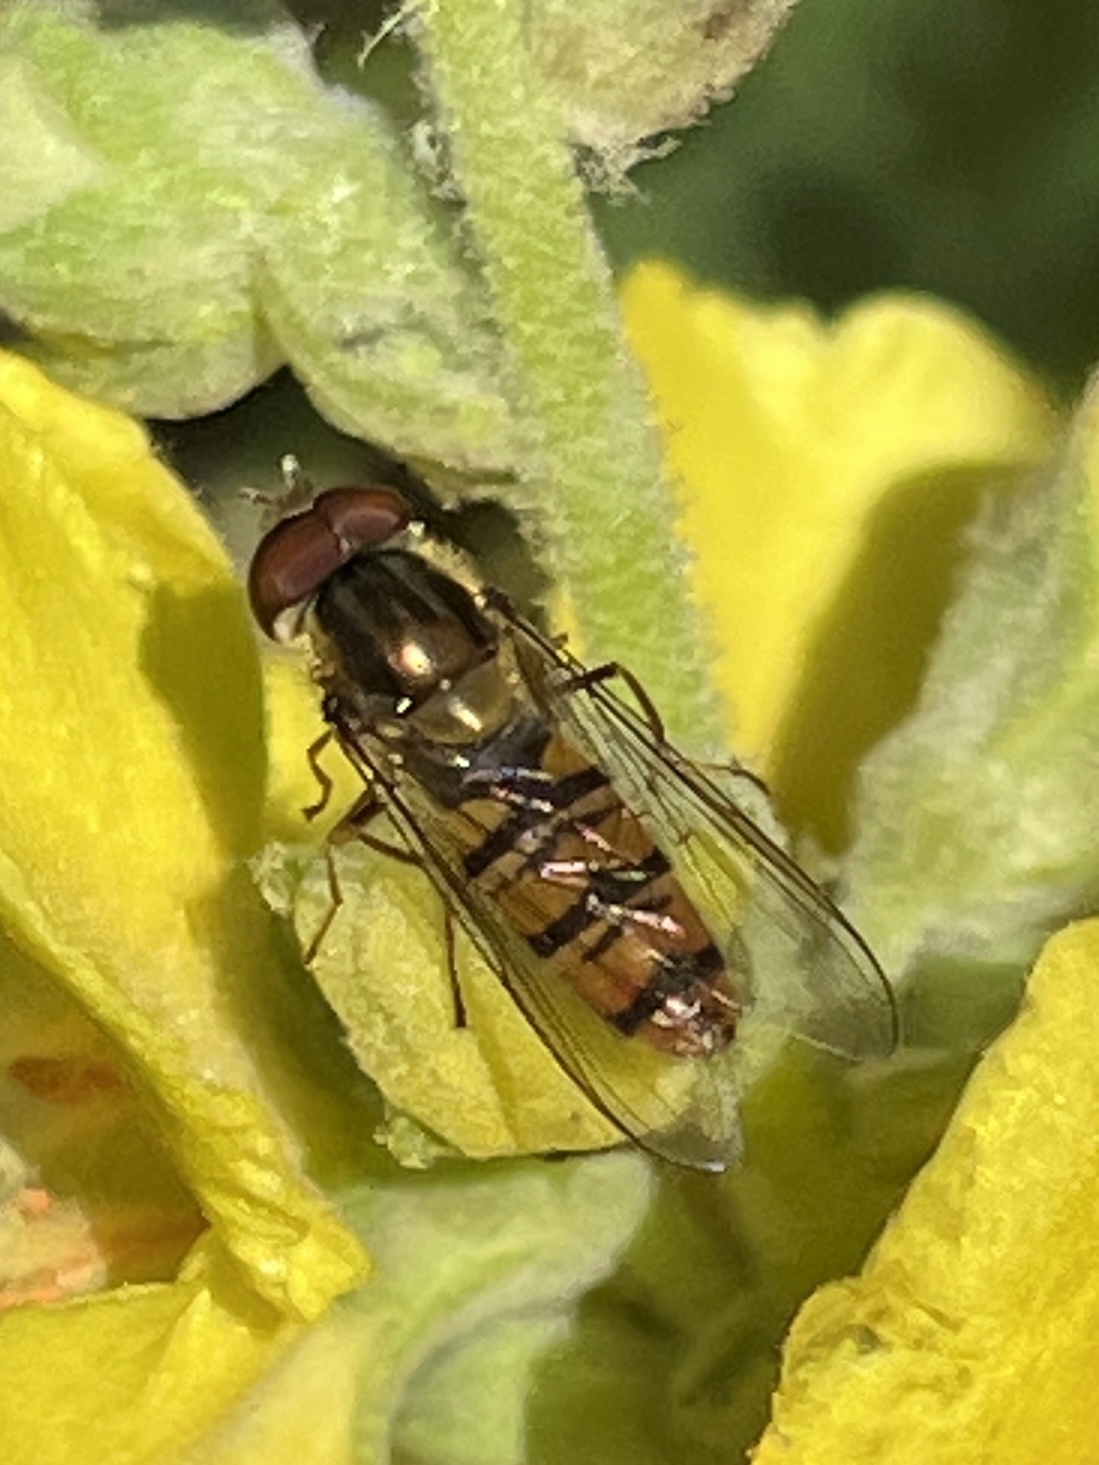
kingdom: Animalia
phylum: Arthropoda
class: Insecta
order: Diptera
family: Syrphidae
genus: Episyrphus
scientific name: Episyrphus balteatus
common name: Marmalade hoverfly
